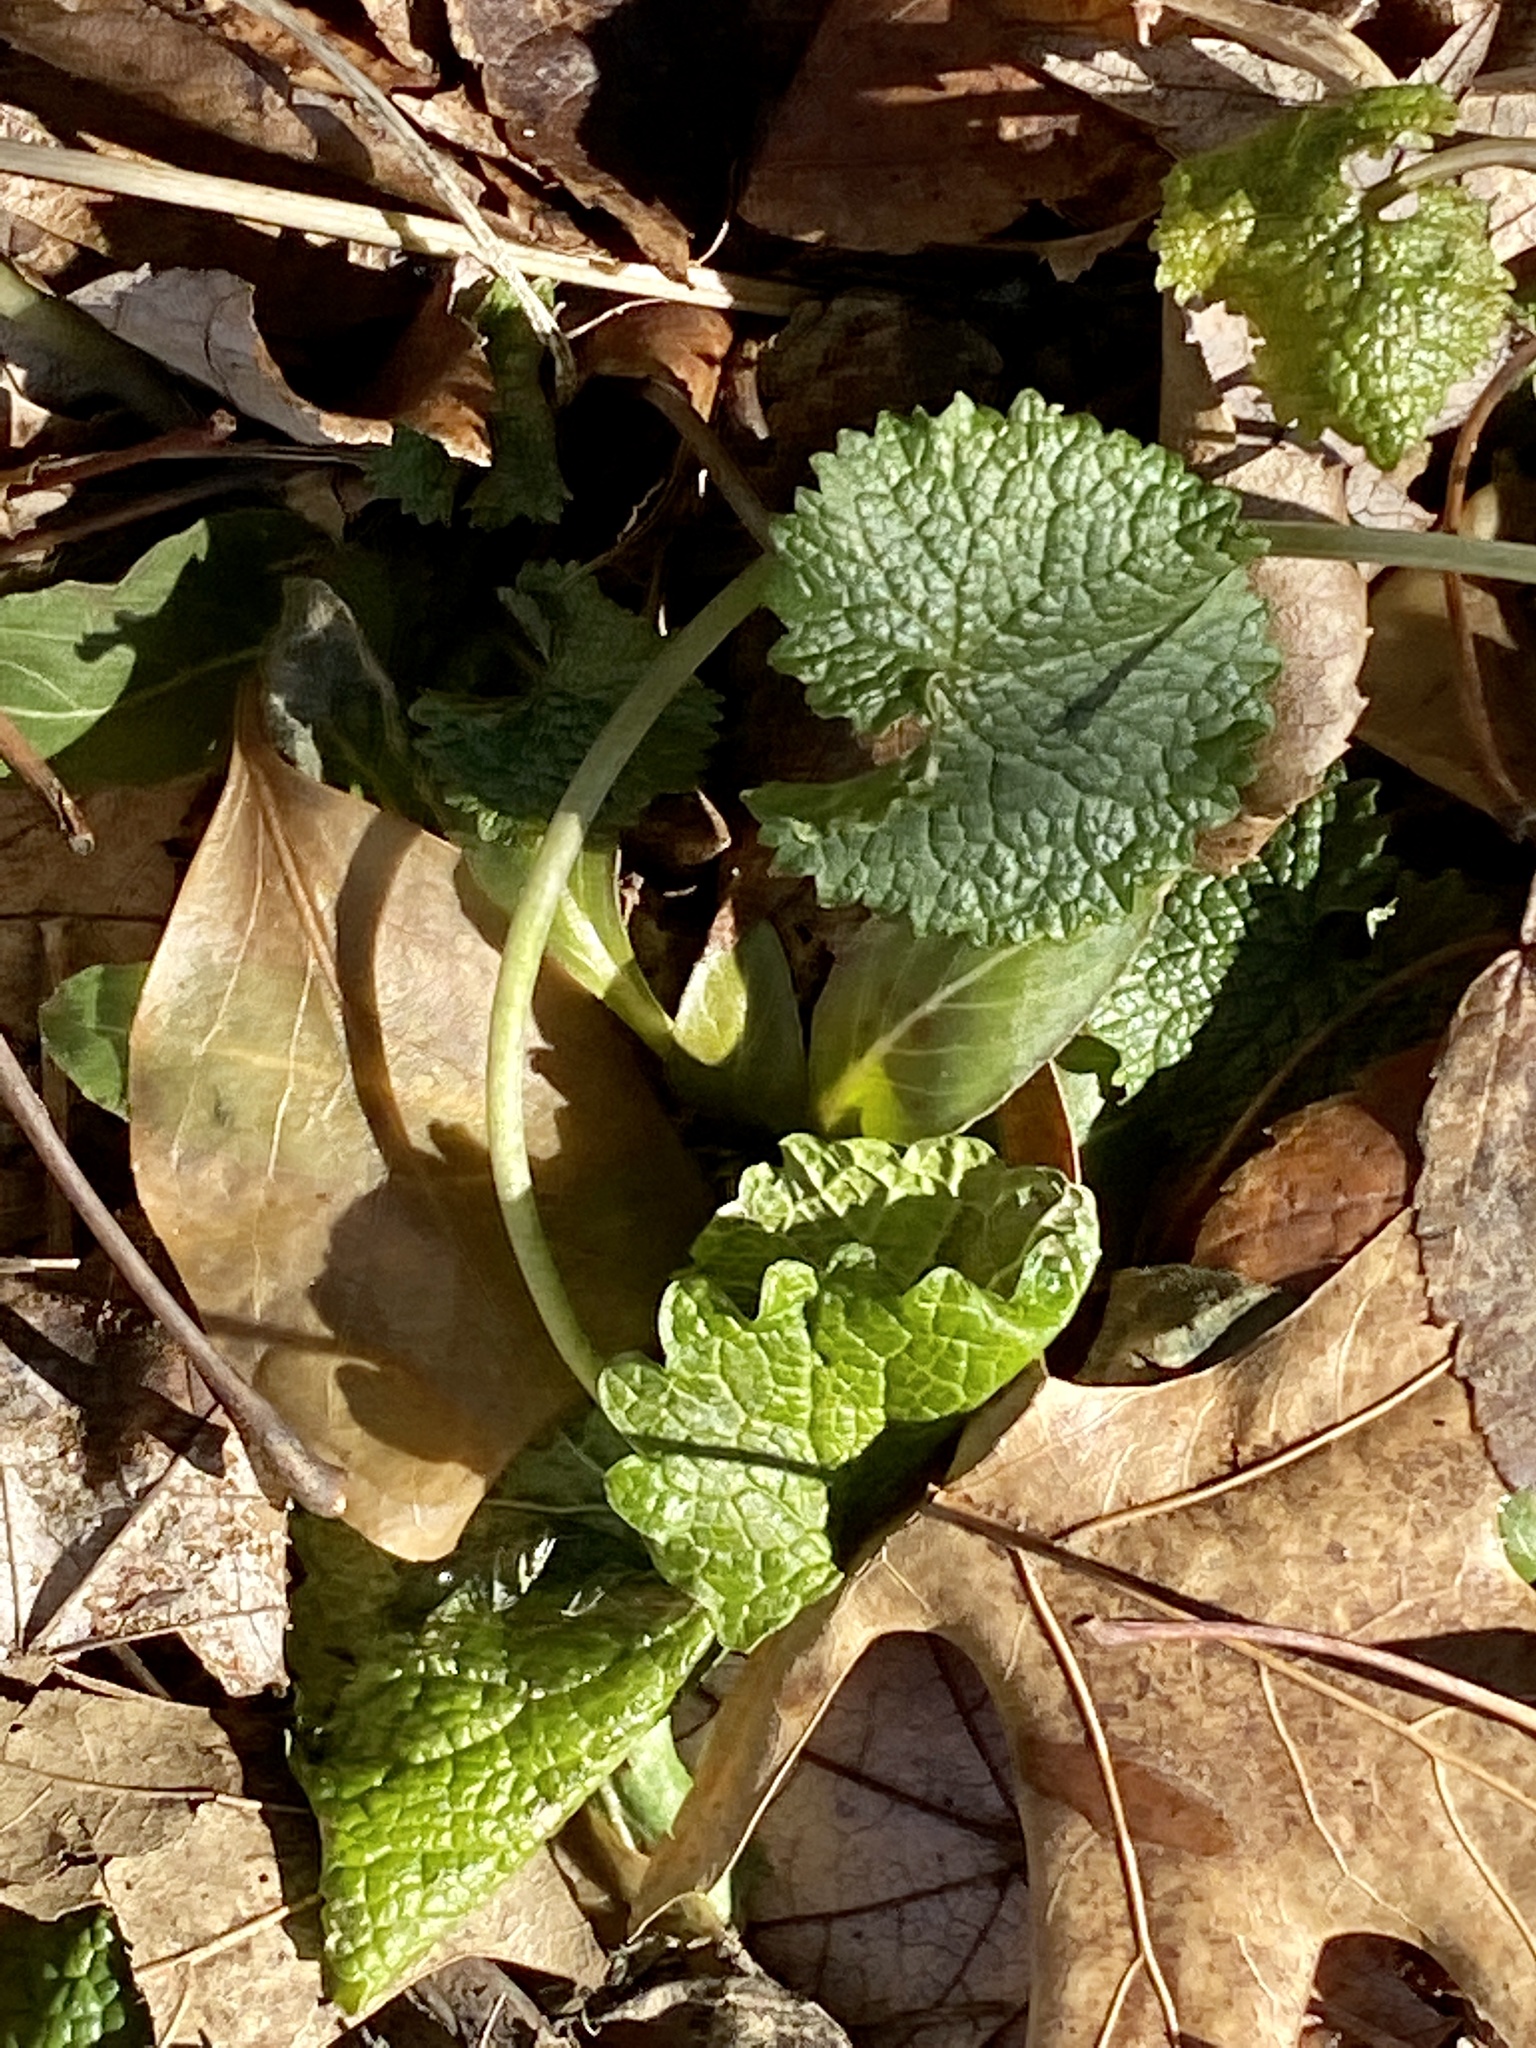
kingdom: Plantae
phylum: Tracheophyta
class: Magnoliopsida
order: Brassicales
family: Brassicaceae
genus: Alliaria
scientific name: Alliaria petiolata
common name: Garlic mustard
